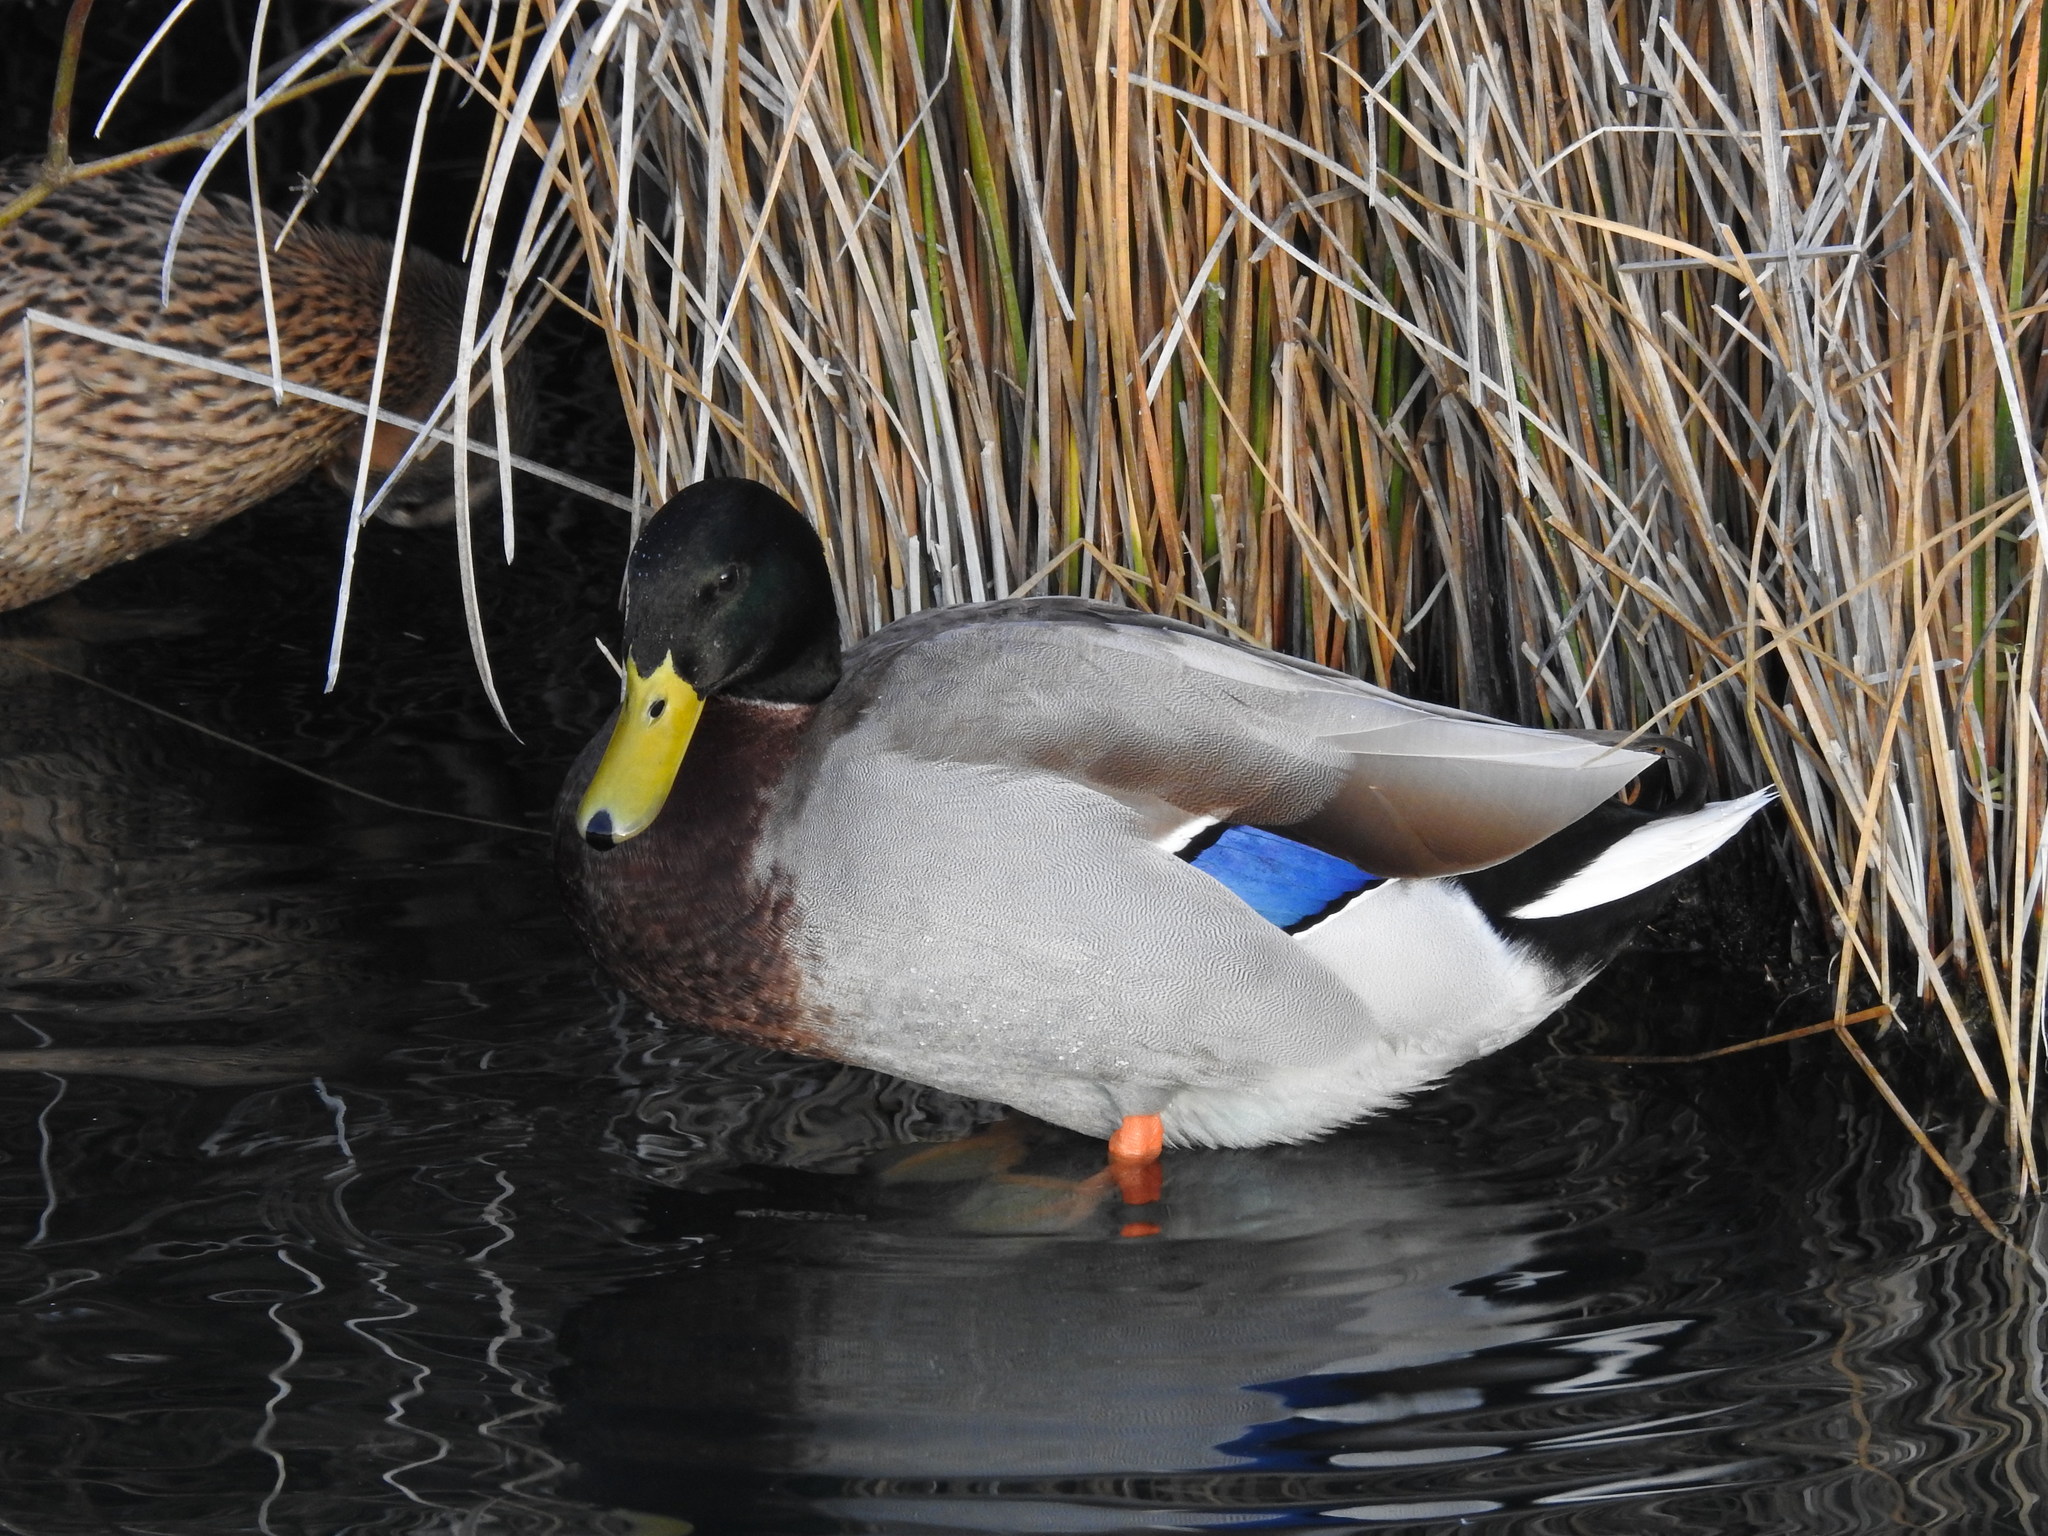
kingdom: Animalia
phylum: Chordata
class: Aves
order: Anseriformes
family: Anatidae
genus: Anas
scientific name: Anas platyrhynchos
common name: Mallard
